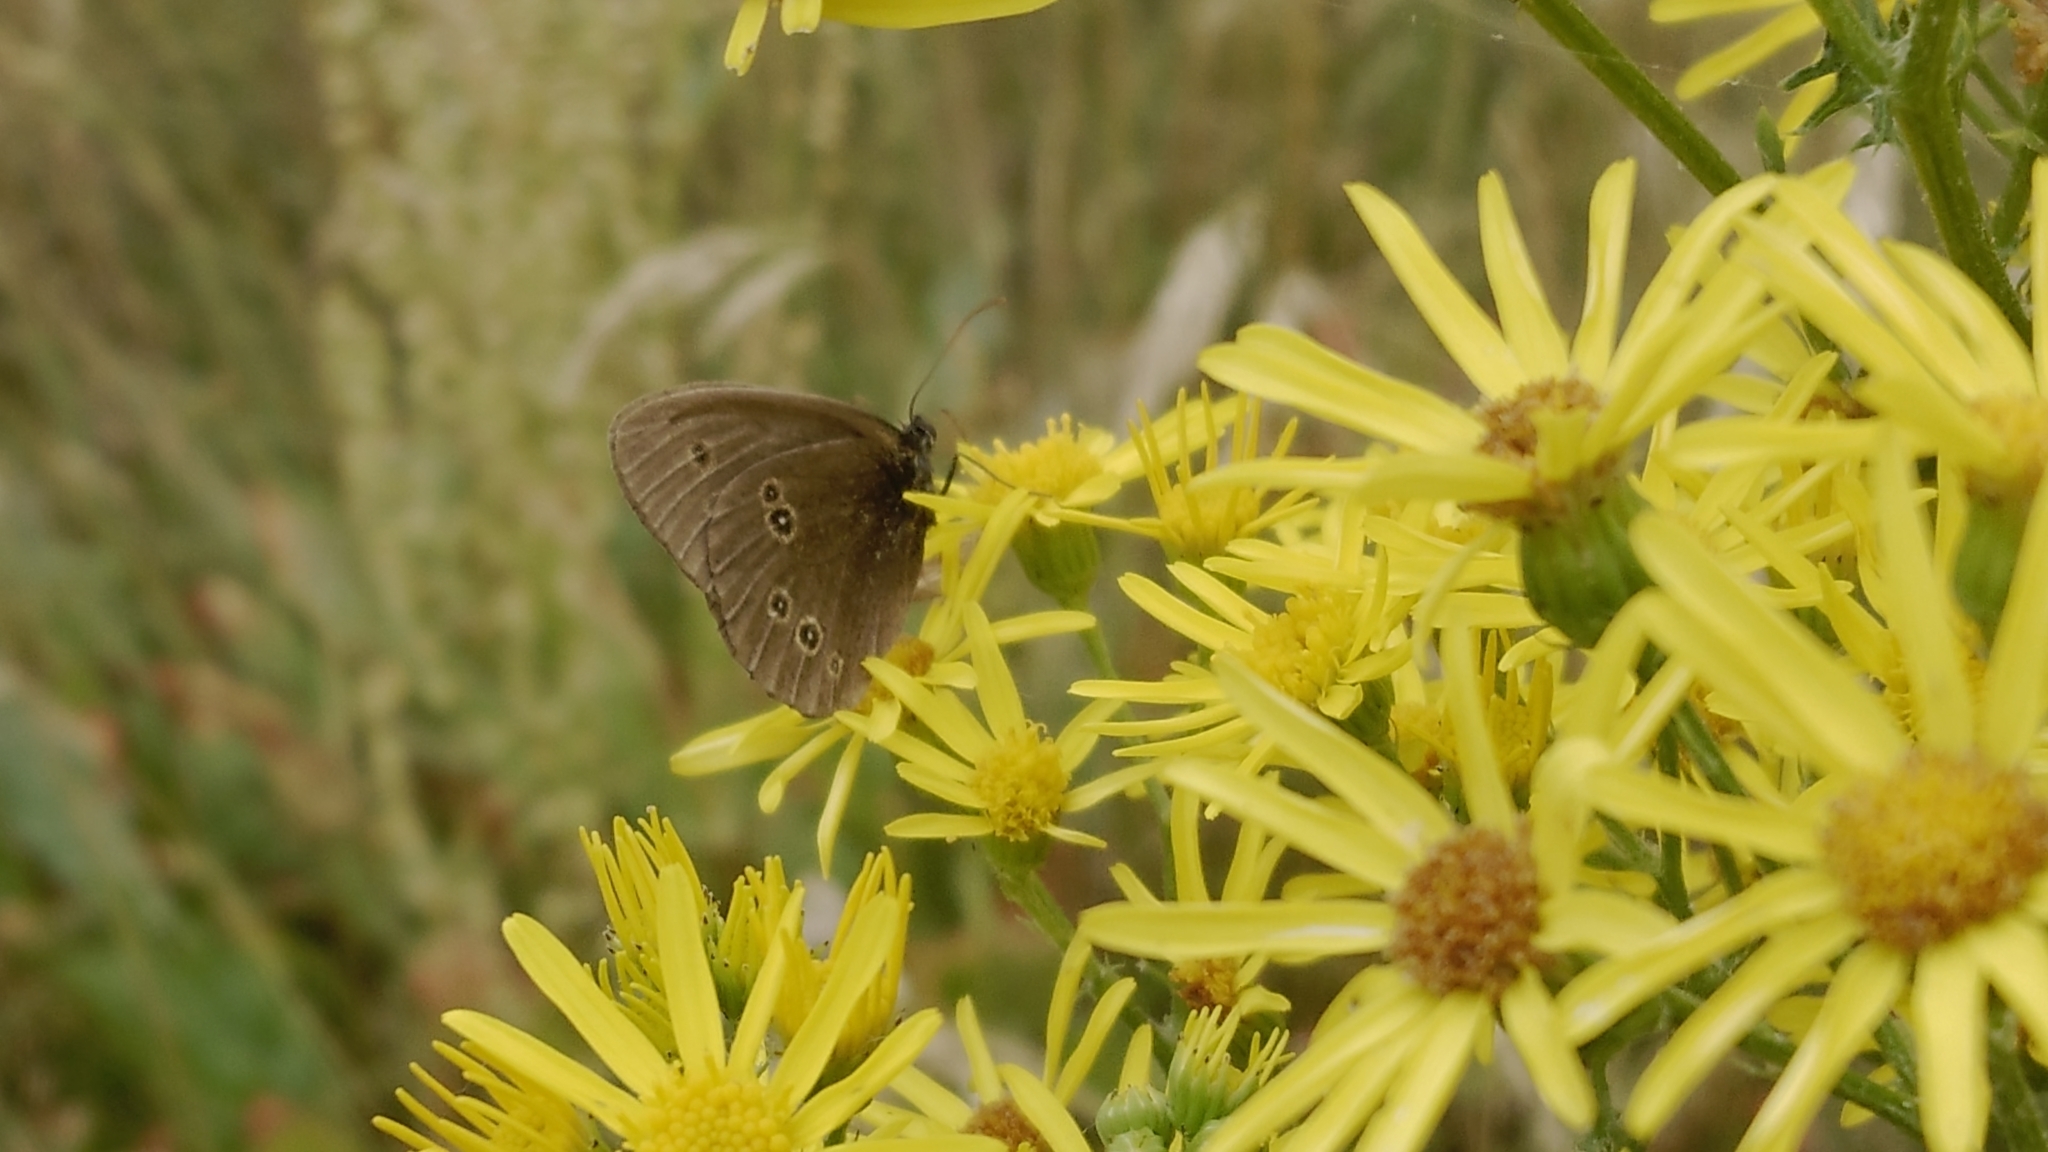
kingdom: Animalia
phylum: Arthropoda
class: Insecta
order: Lepidoptera
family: Nymphalidae
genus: Aphantopus
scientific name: Aphantopus hyperantus
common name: Ringlet
